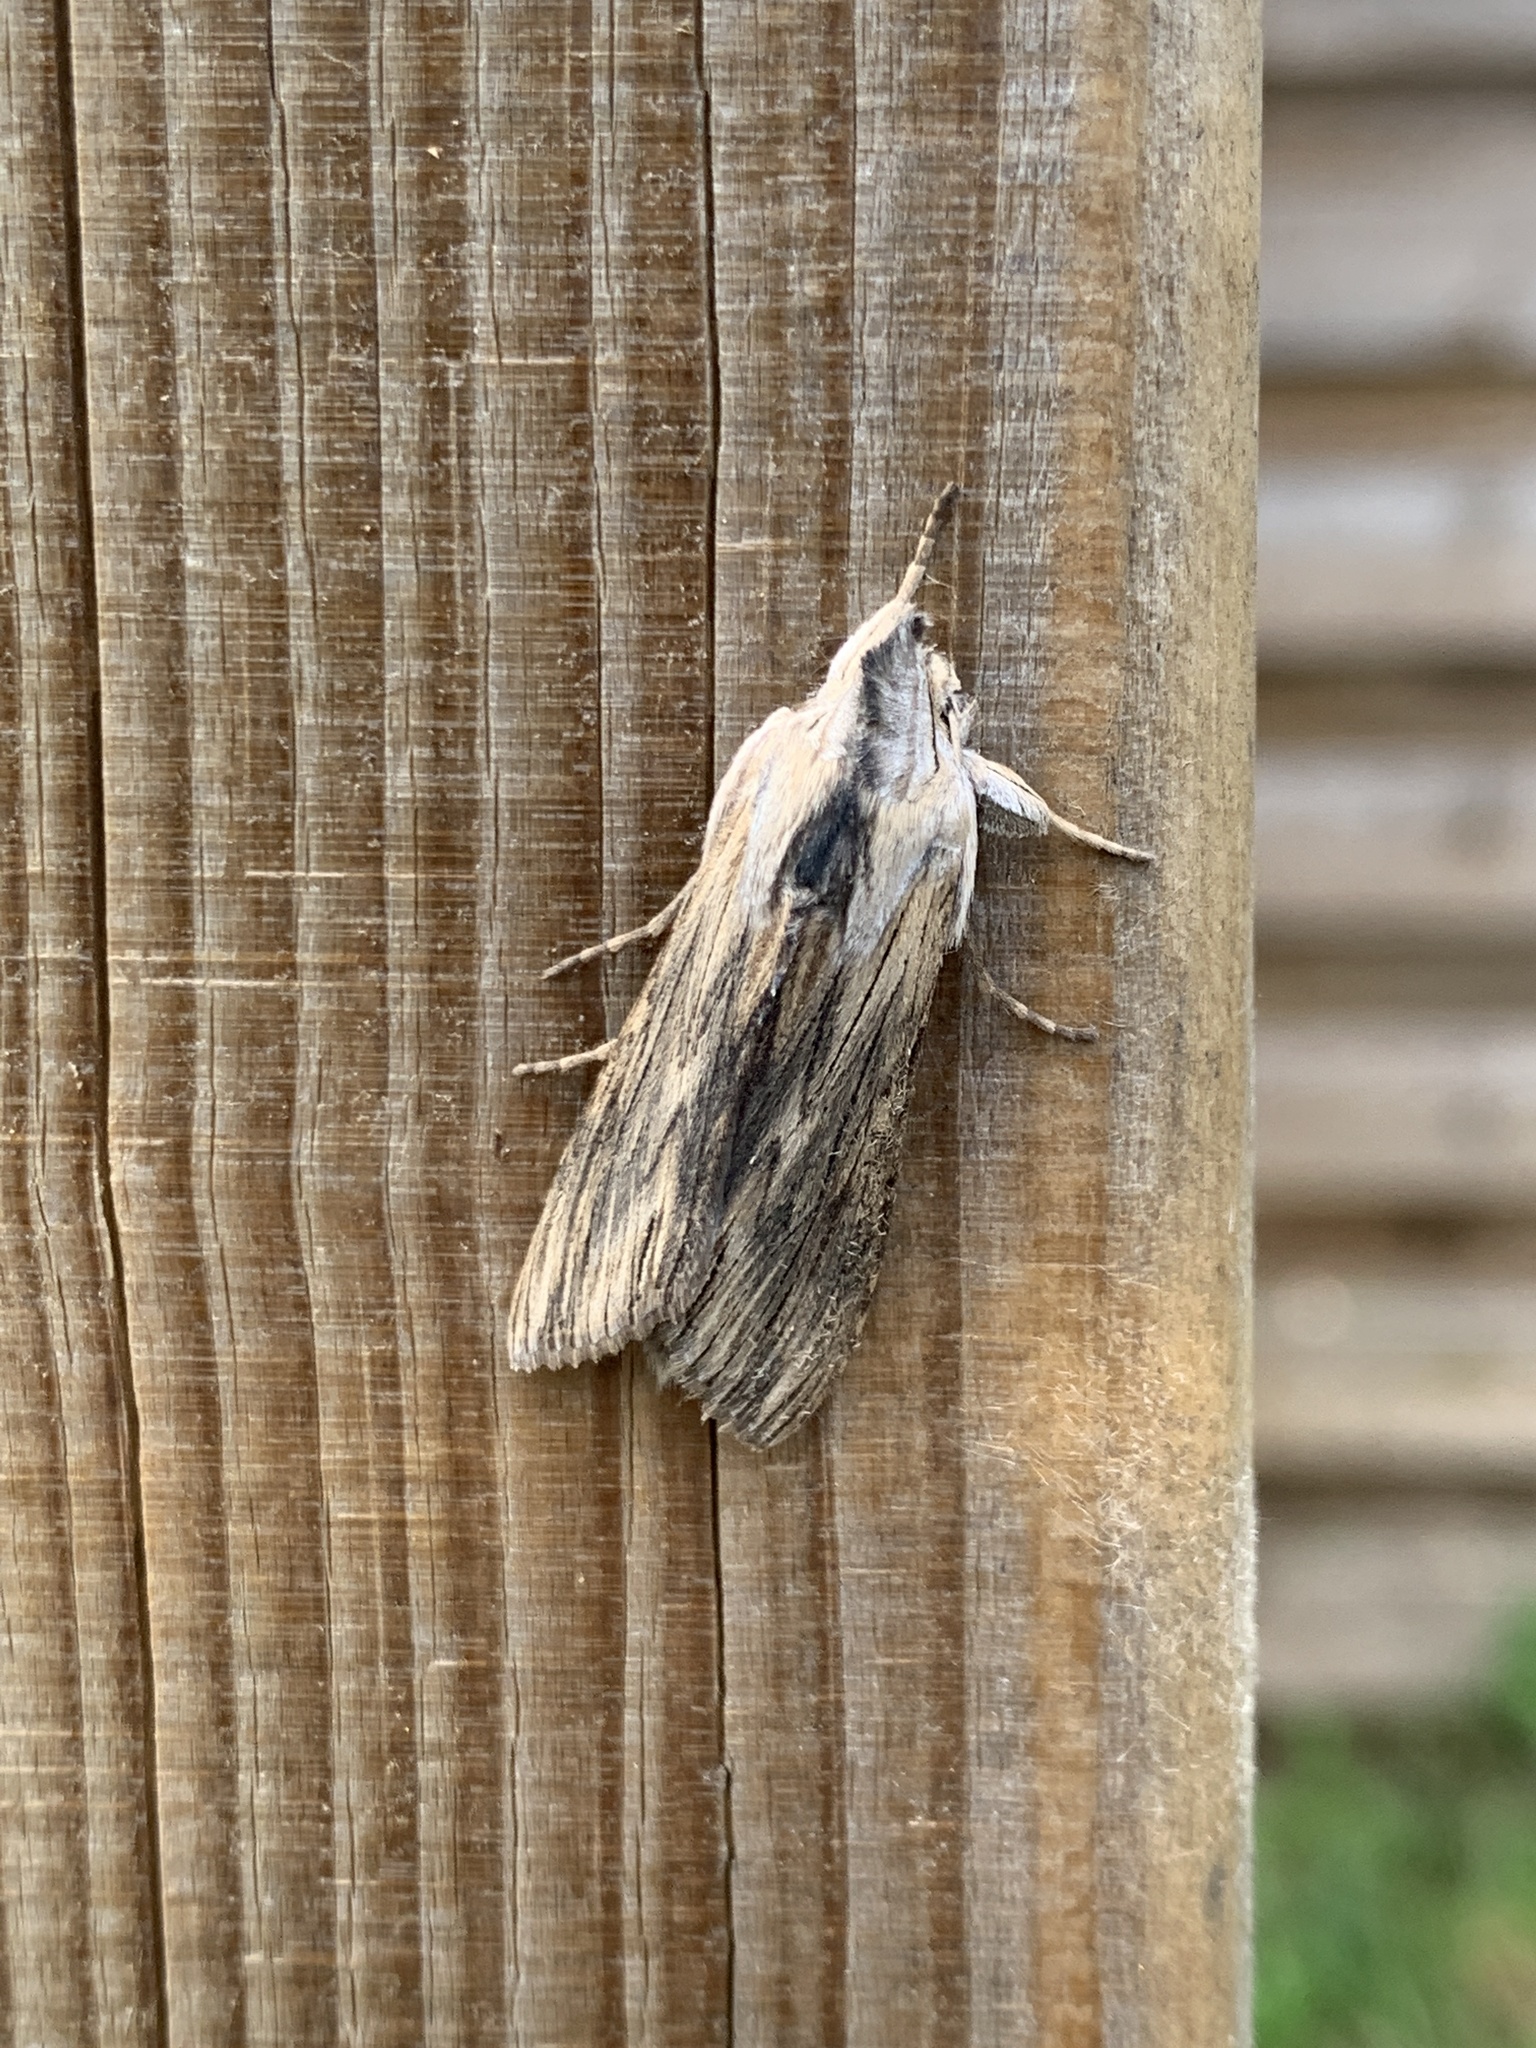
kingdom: Animalia
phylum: Arthropoda
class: Insecta
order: Lepidoptera
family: Noctuidae
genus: Cucullia
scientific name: Cucullia chamomillae
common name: Chamomile shark
